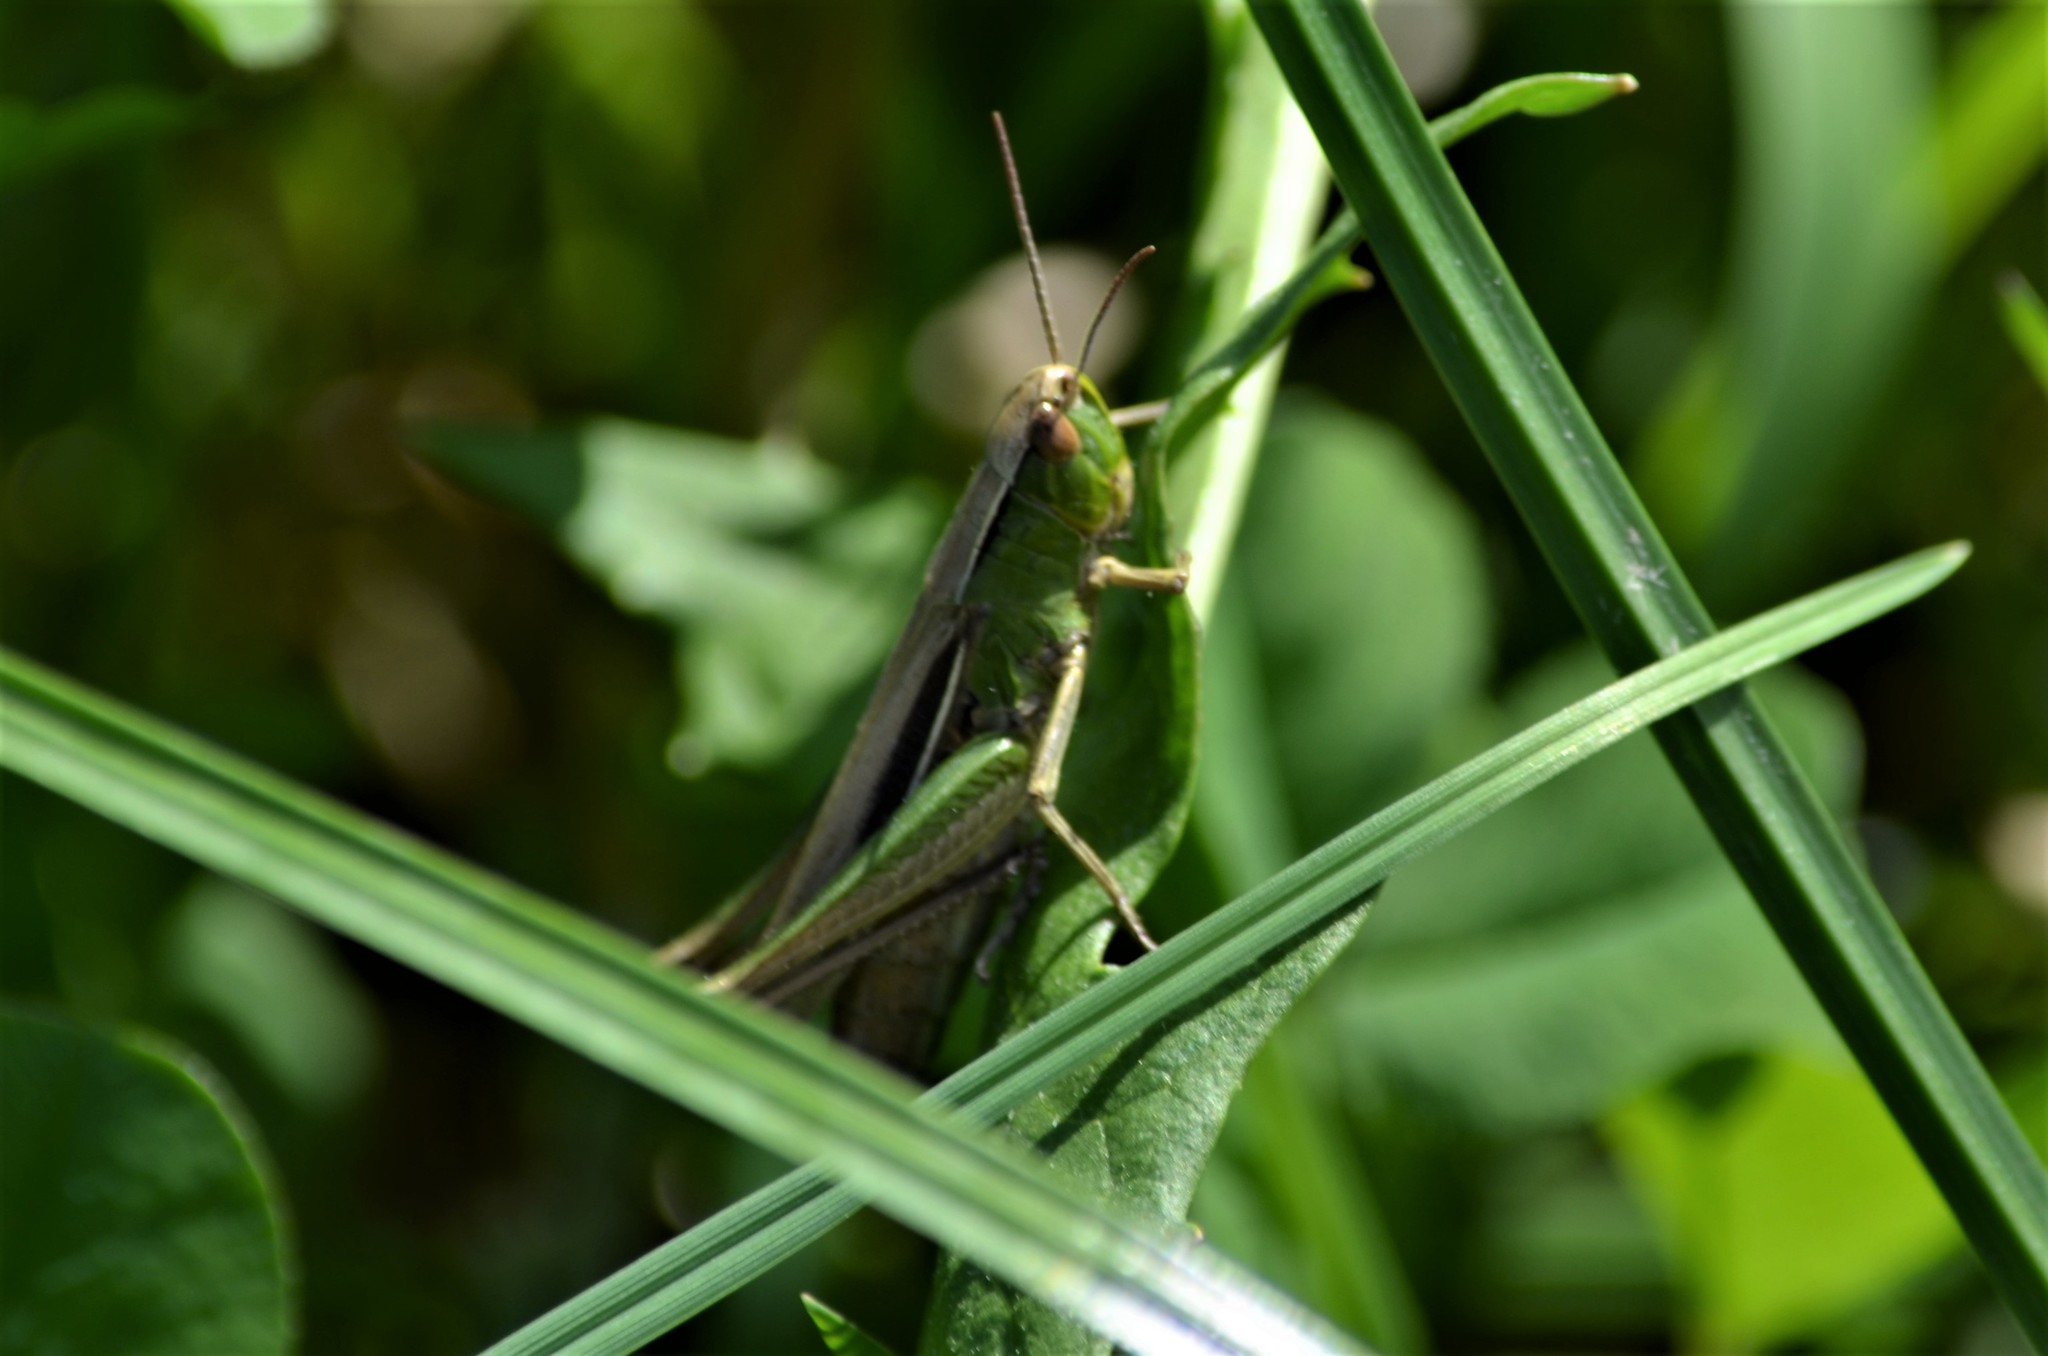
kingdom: Animalia
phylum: Arthropoda
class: Insecta
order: Orthoptera
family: Acrididae
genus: Chorthippus
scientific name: Chorthippus albomarginatus
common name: Lesser marsh grasshopper
